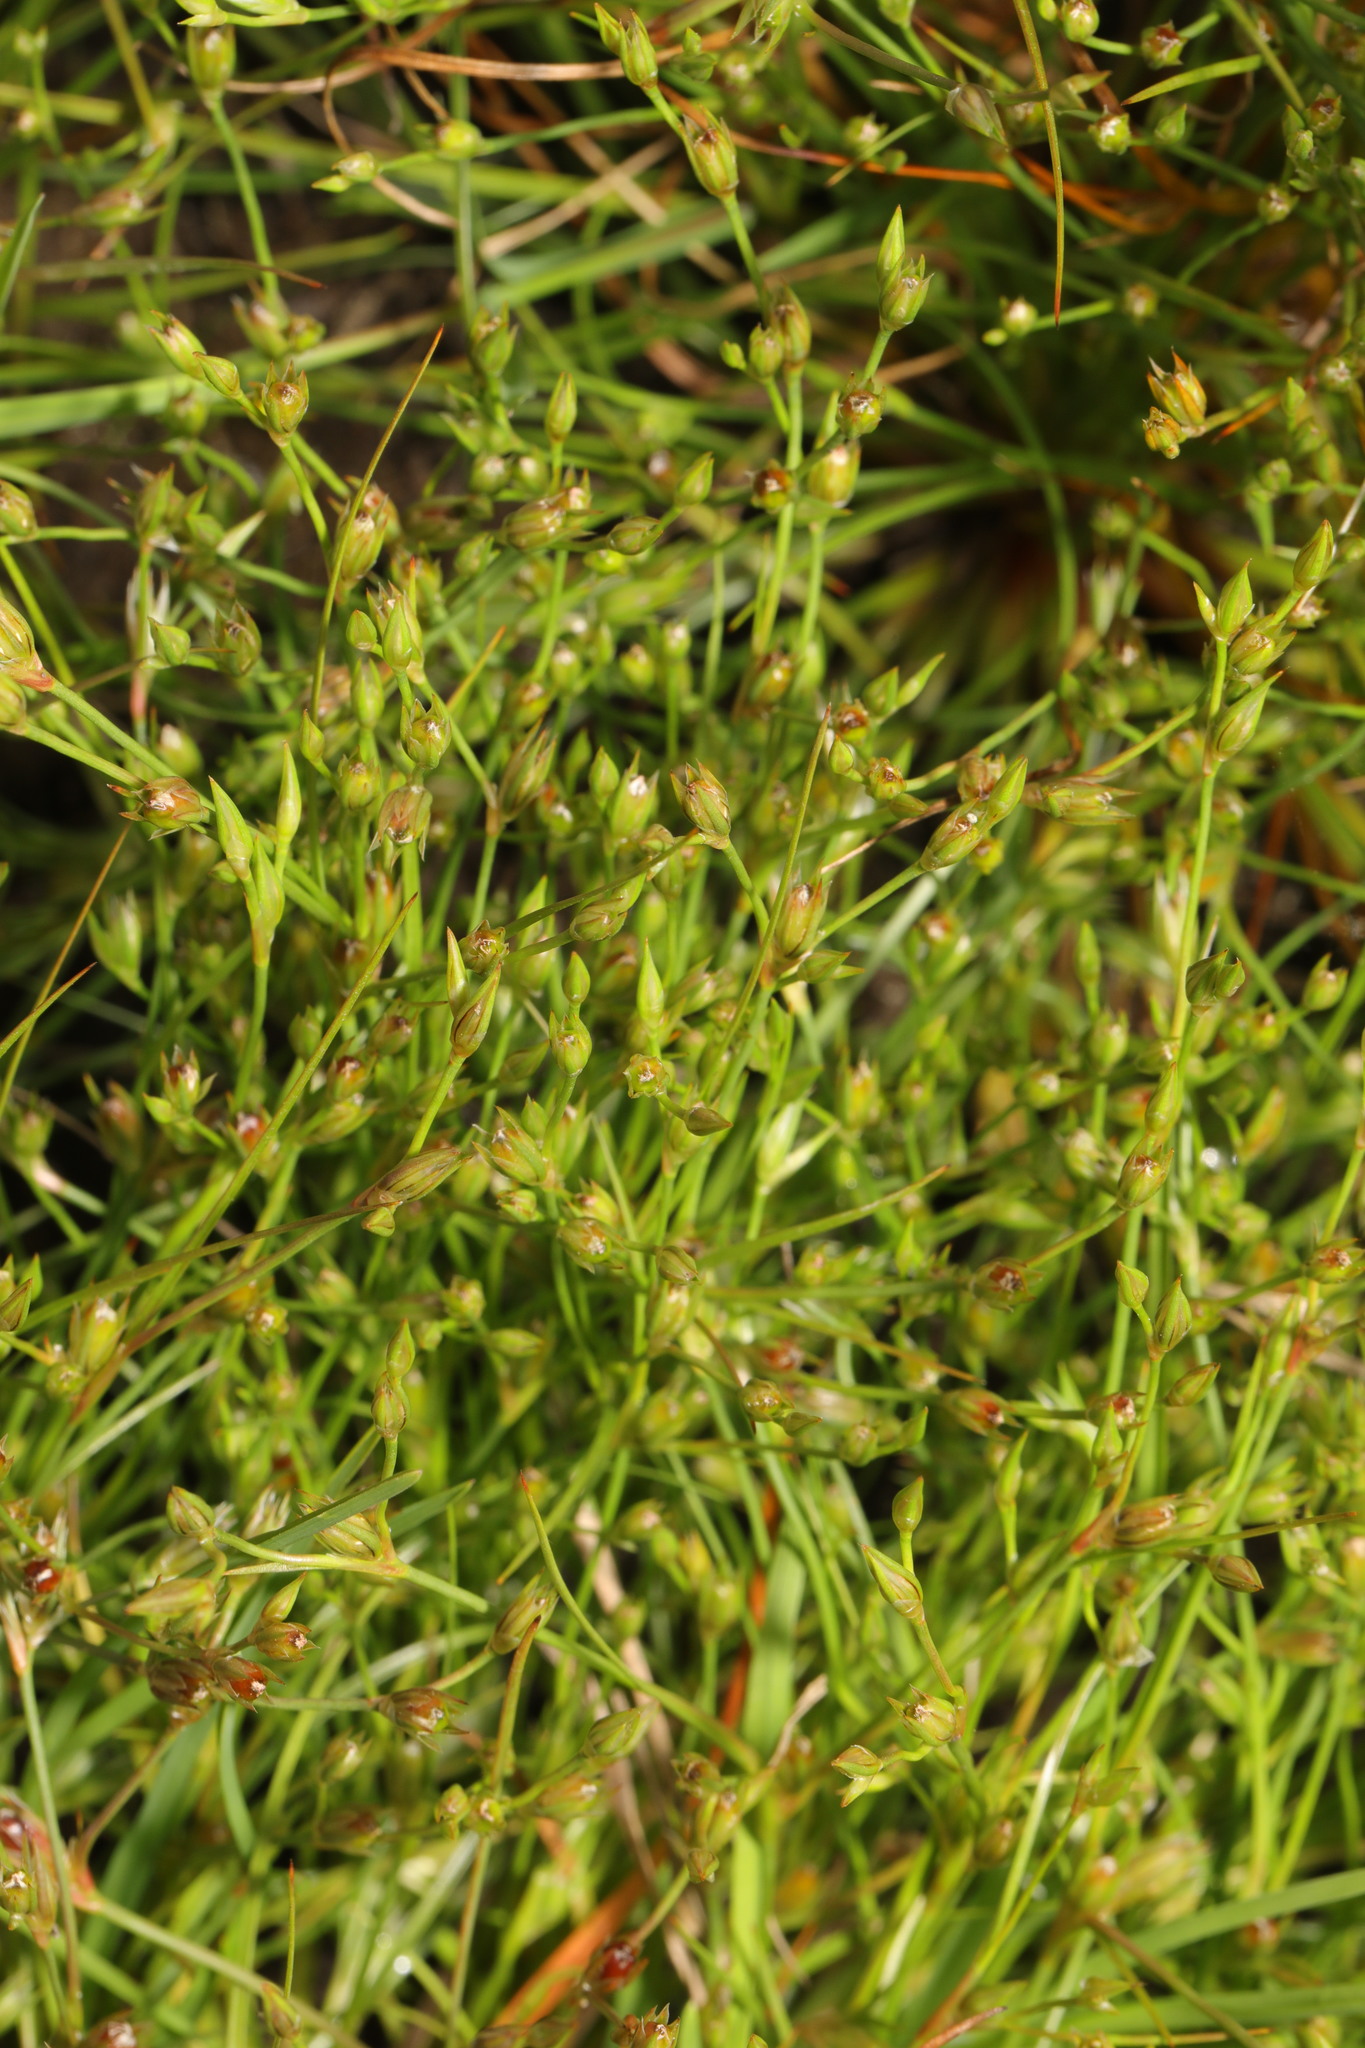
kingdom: Plantae
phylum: Tracheophyta
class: Liliopsida
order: Poales
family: Juncaceae
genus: Juncus
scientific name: Juncus bufonius
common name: Toad rush
